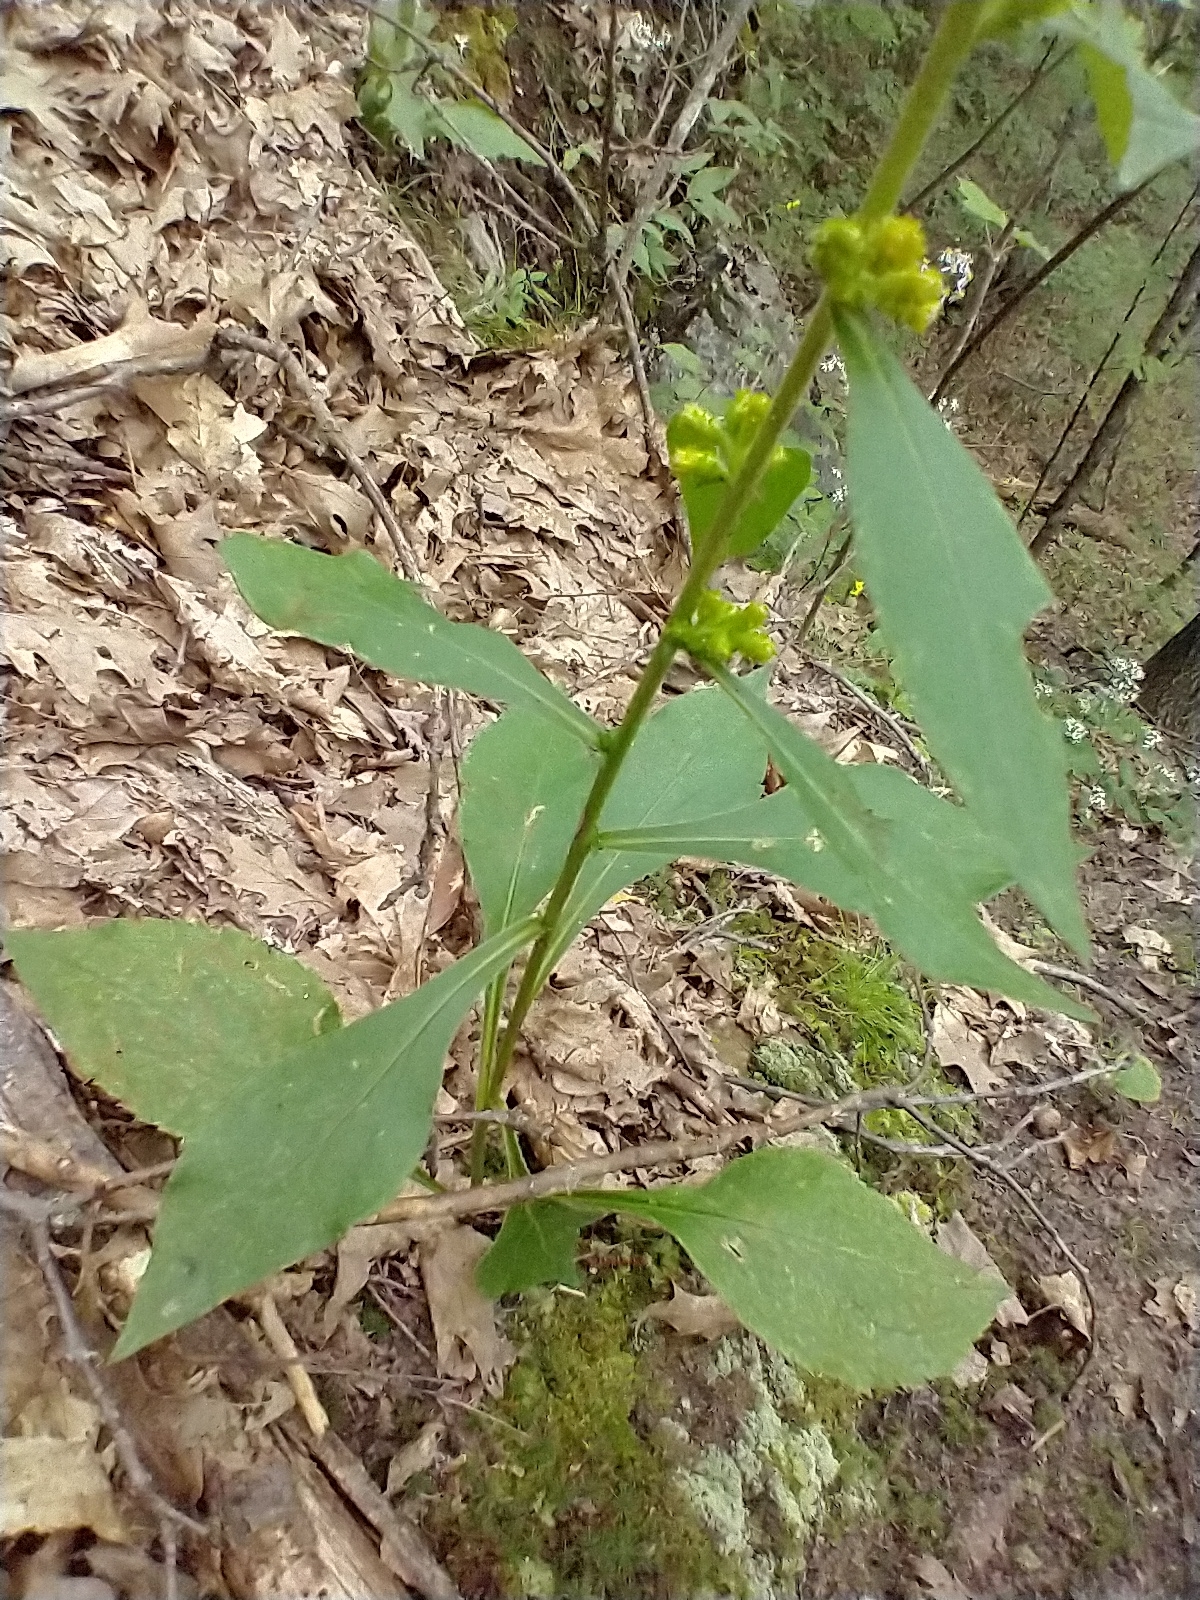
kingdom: Plantae
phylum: Tracheophyta
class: Magnoliopsida
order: Asterales
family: Asteraceae
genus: Solidago
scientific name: Solidago squarrosa
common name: Stout goldenrod
